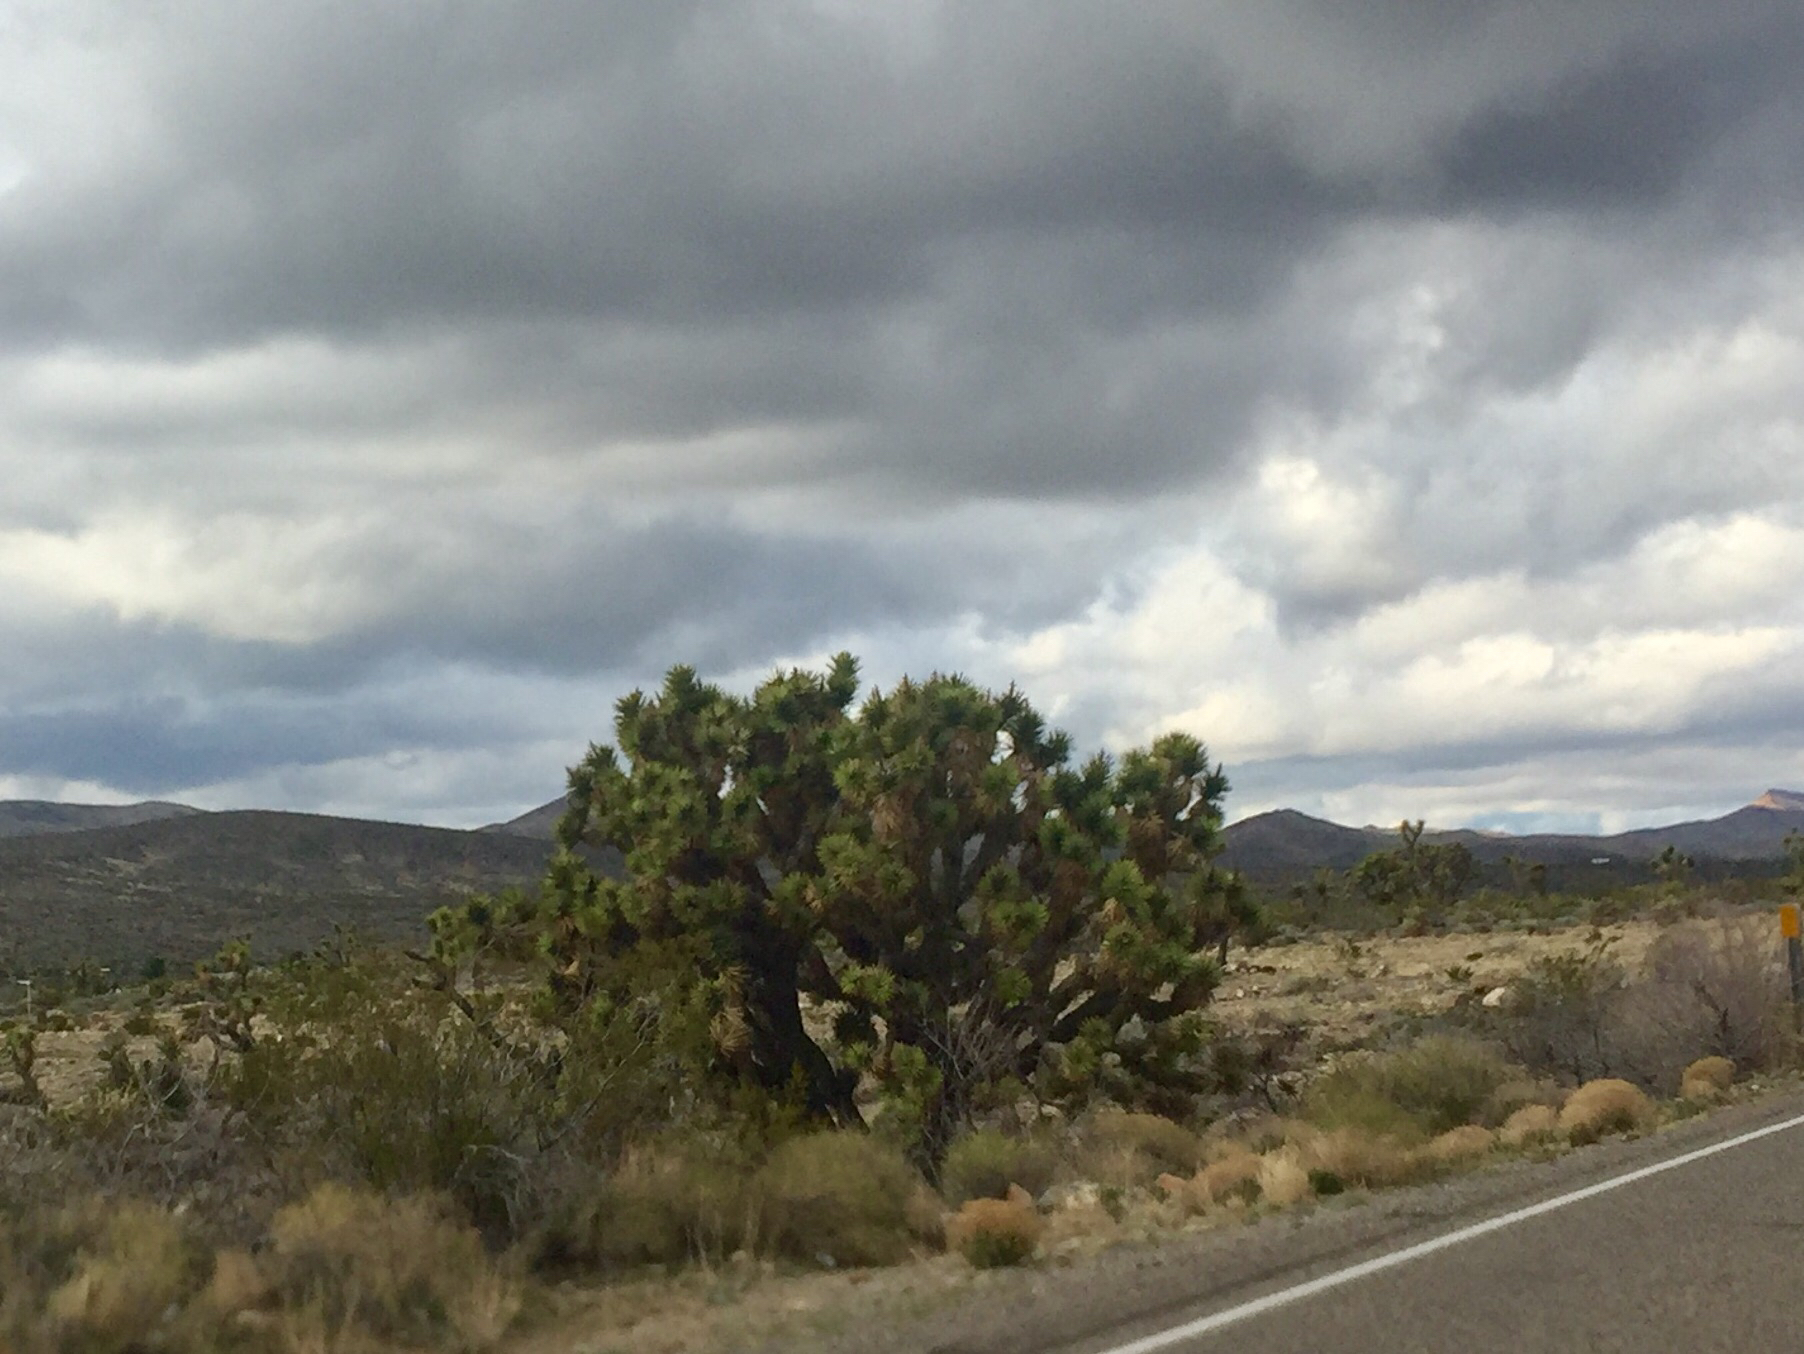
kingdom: Plantae
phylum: Tracheophyta
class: Liliopsida
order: Asparagales
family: Asparagaceae
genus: Yucca
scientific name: Yucca brevifolia
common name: Joshua tree
